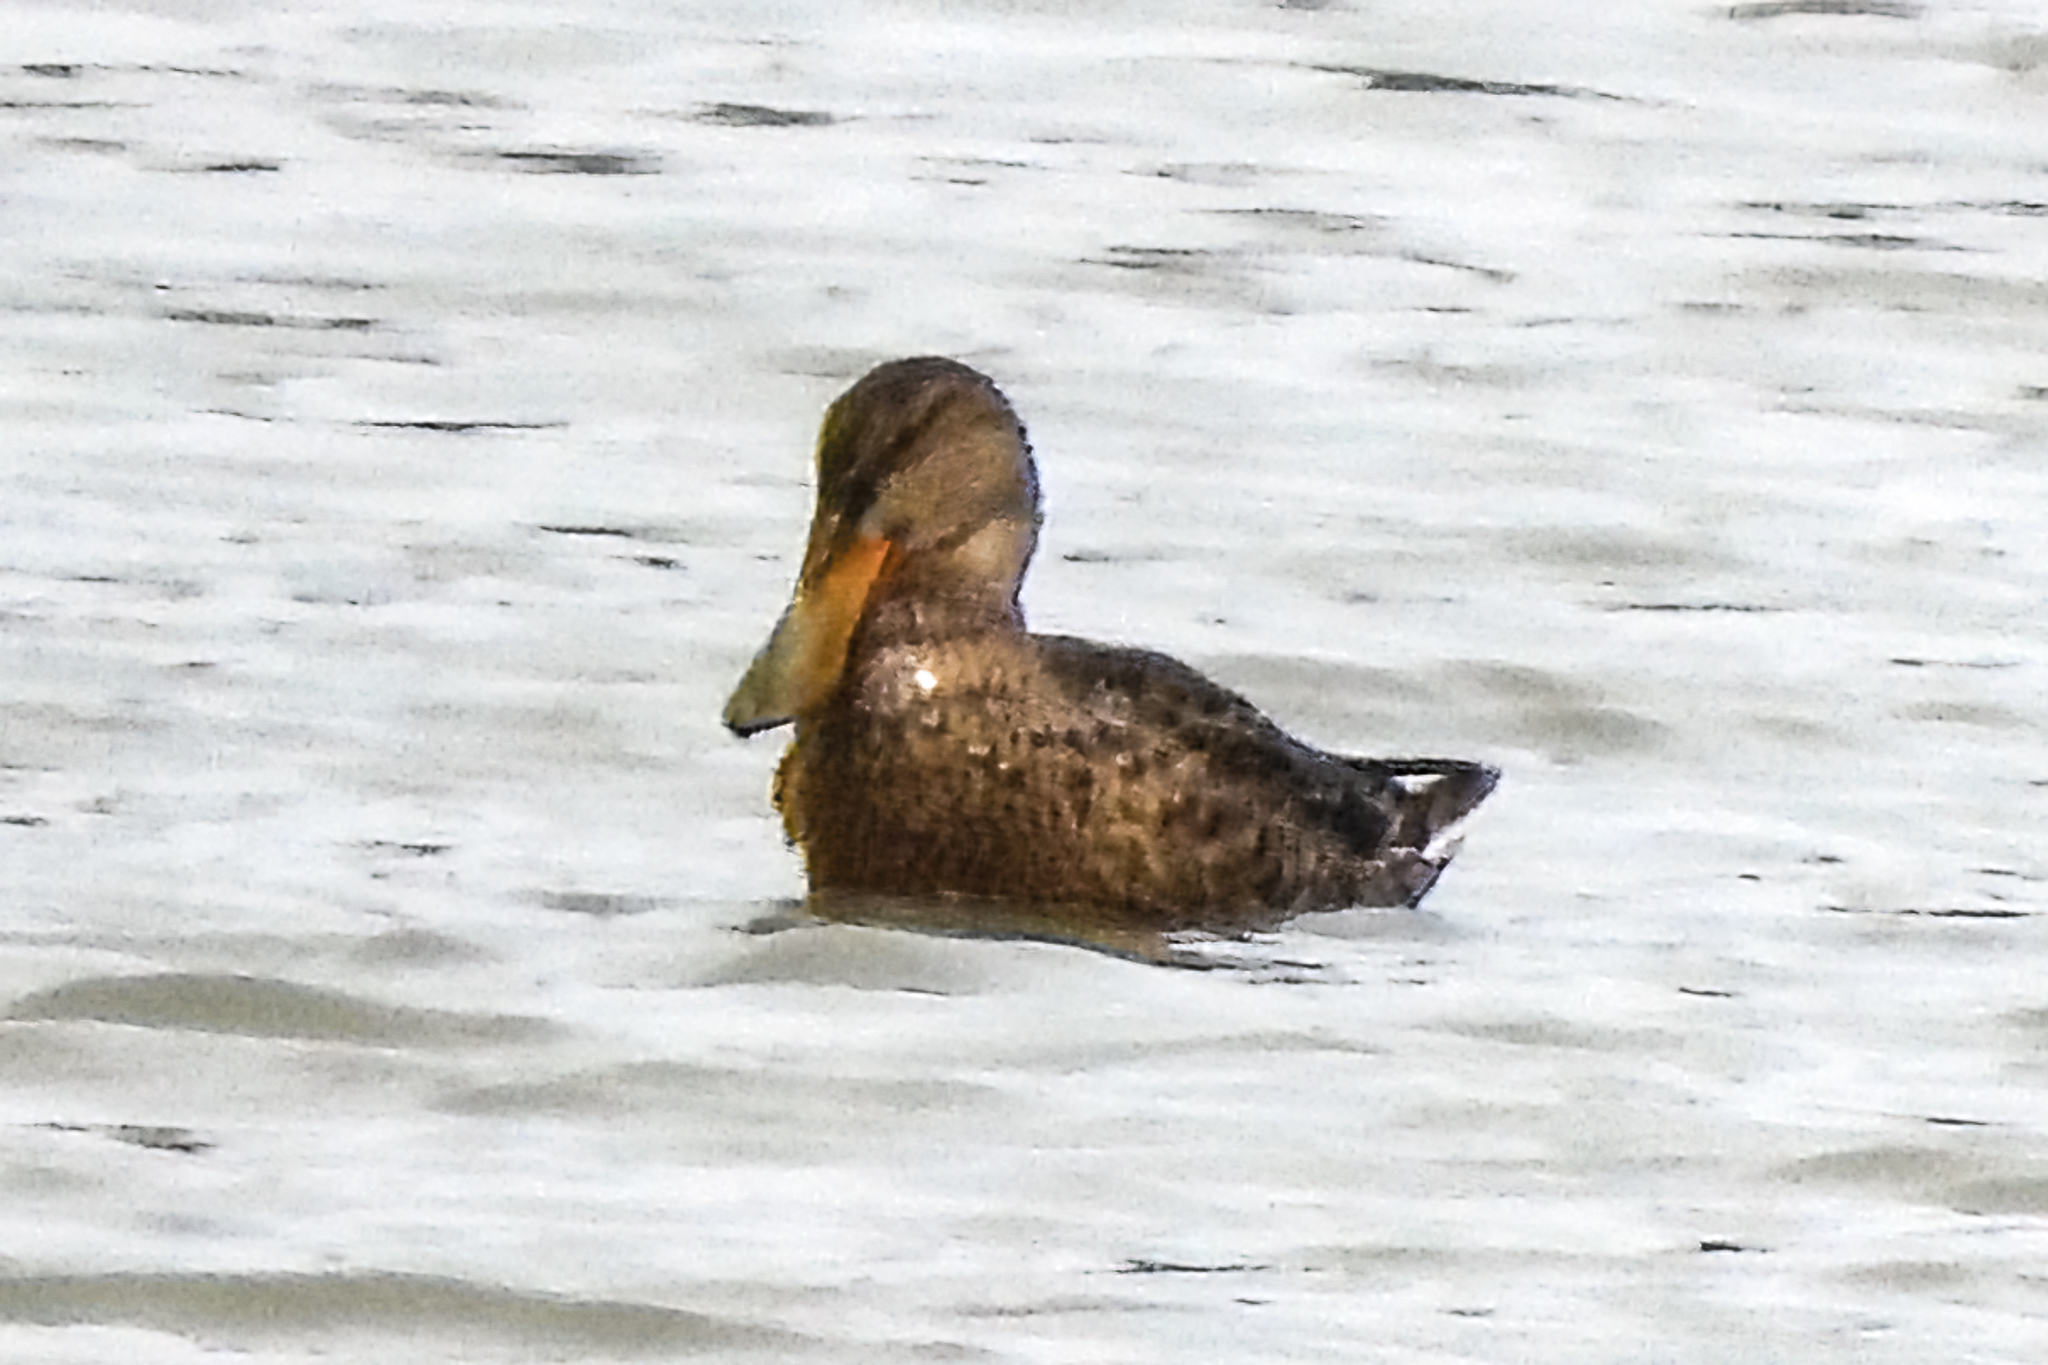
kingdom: Animalia
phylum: Chordata
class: Aves
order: Anseriformes
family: Anatidae
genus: Spatula
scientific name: Spatula clypeata
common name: Northern shoveler
